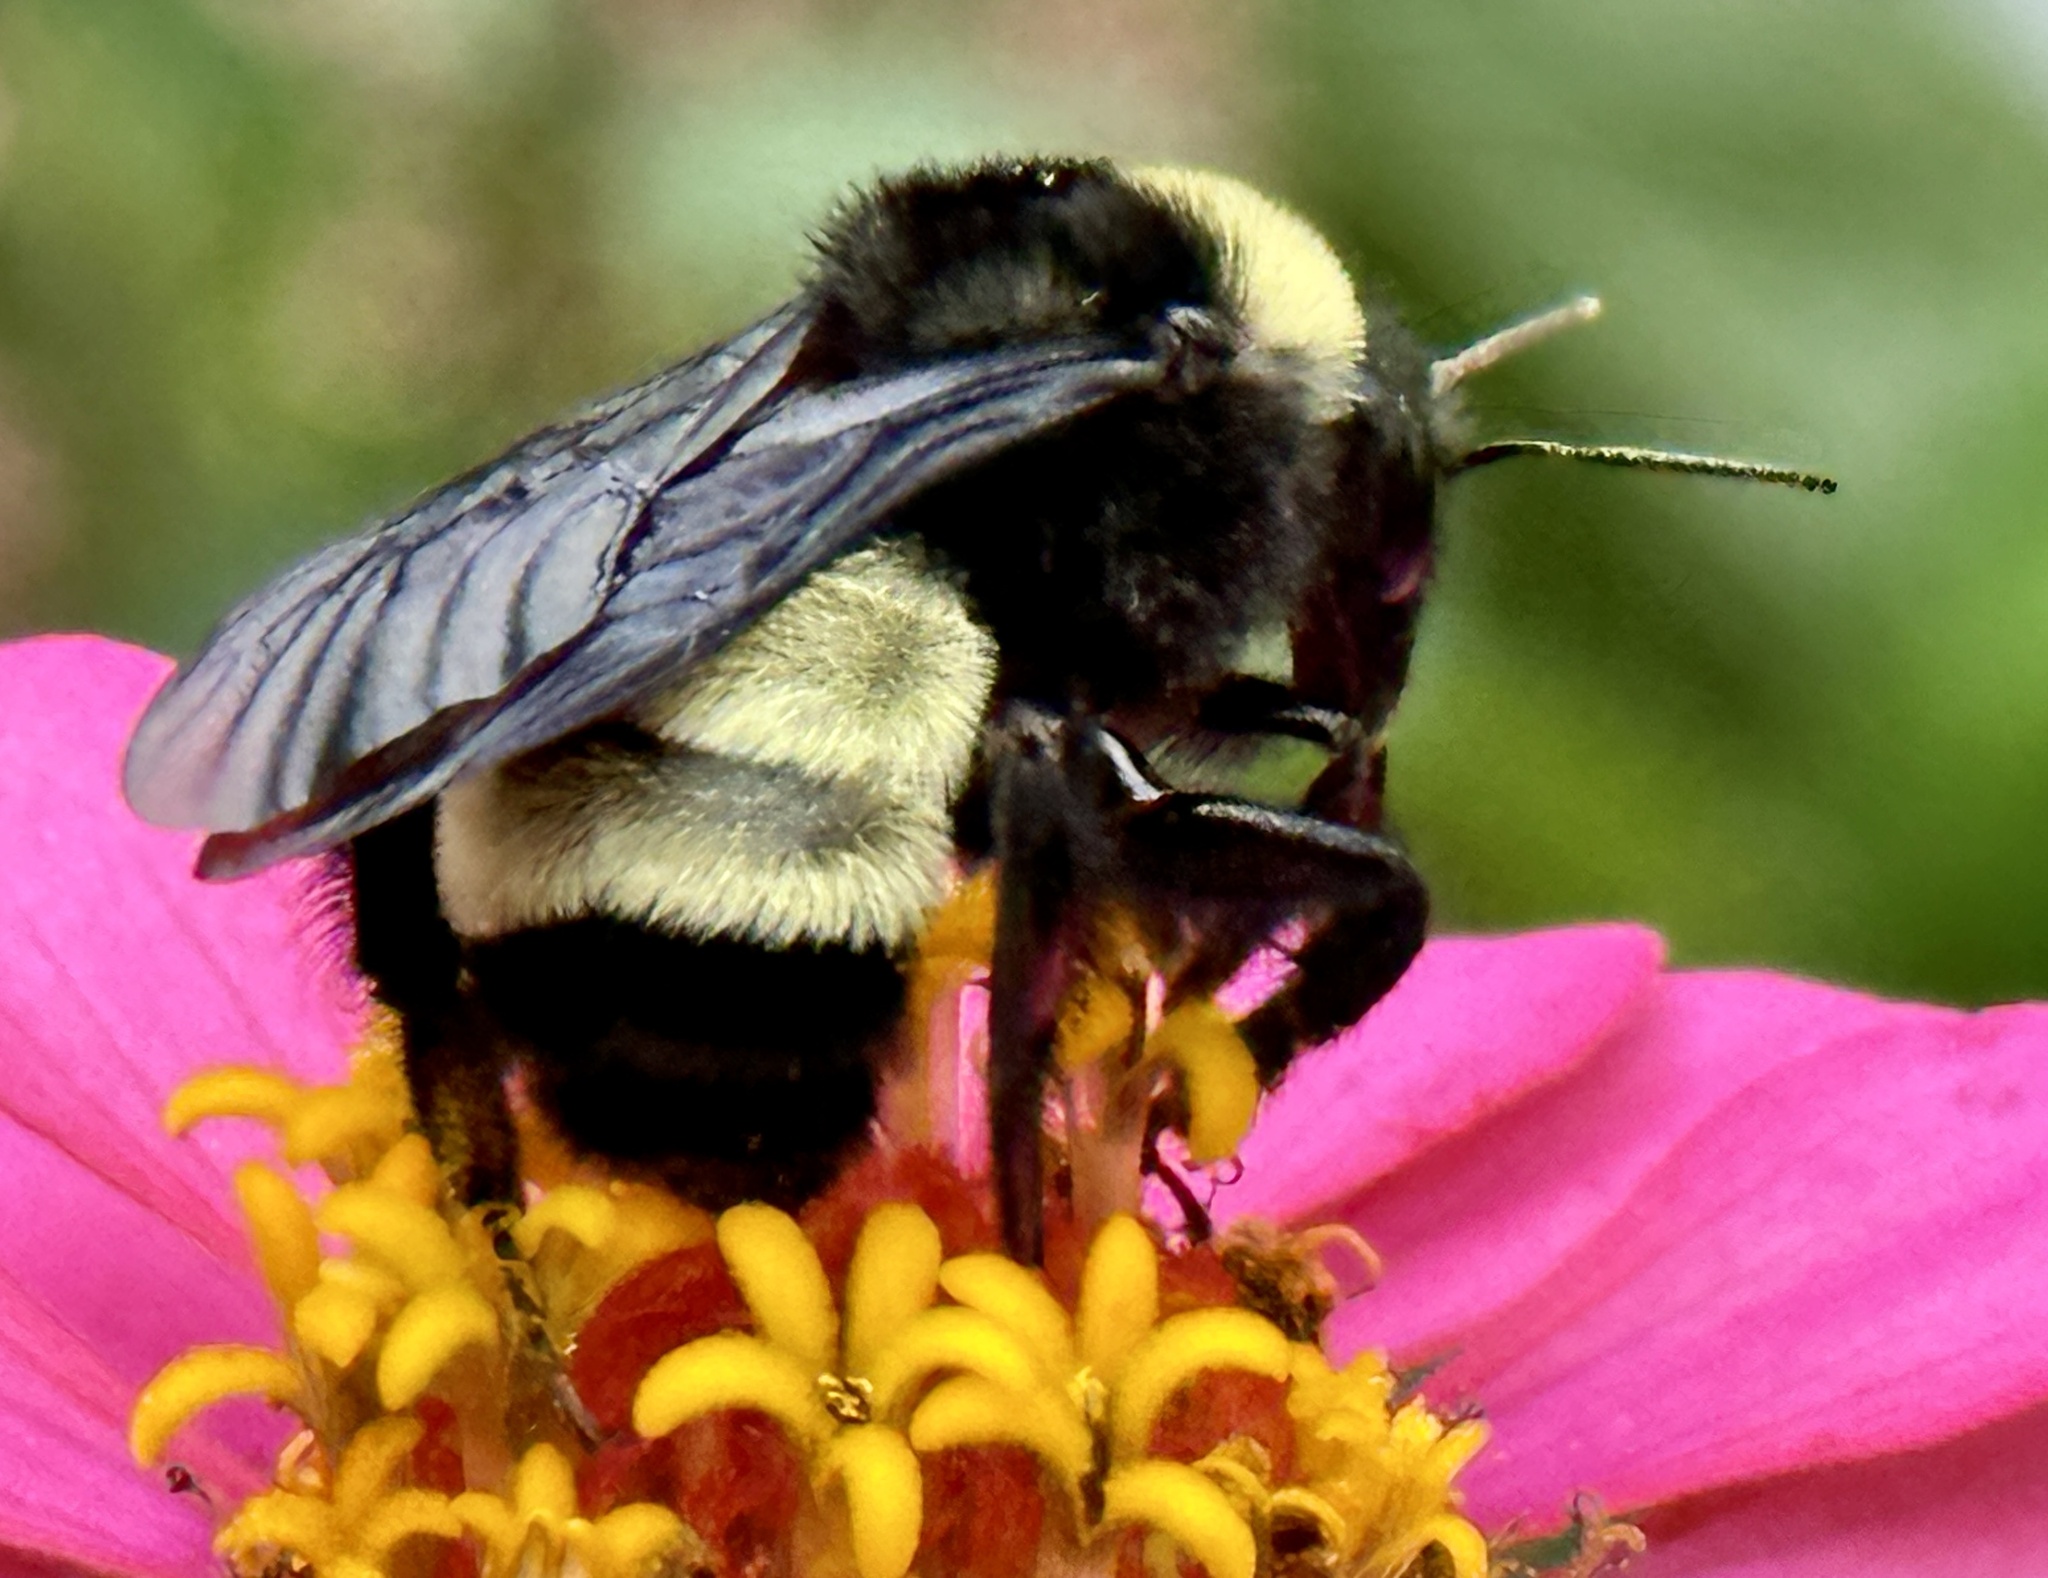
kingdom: Animalia
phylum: Arthropoda
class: Insecta
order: Hymenoptera
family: Apidae
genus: Bombus
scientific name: Bombus pensylvanicus
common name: Bumble bee
